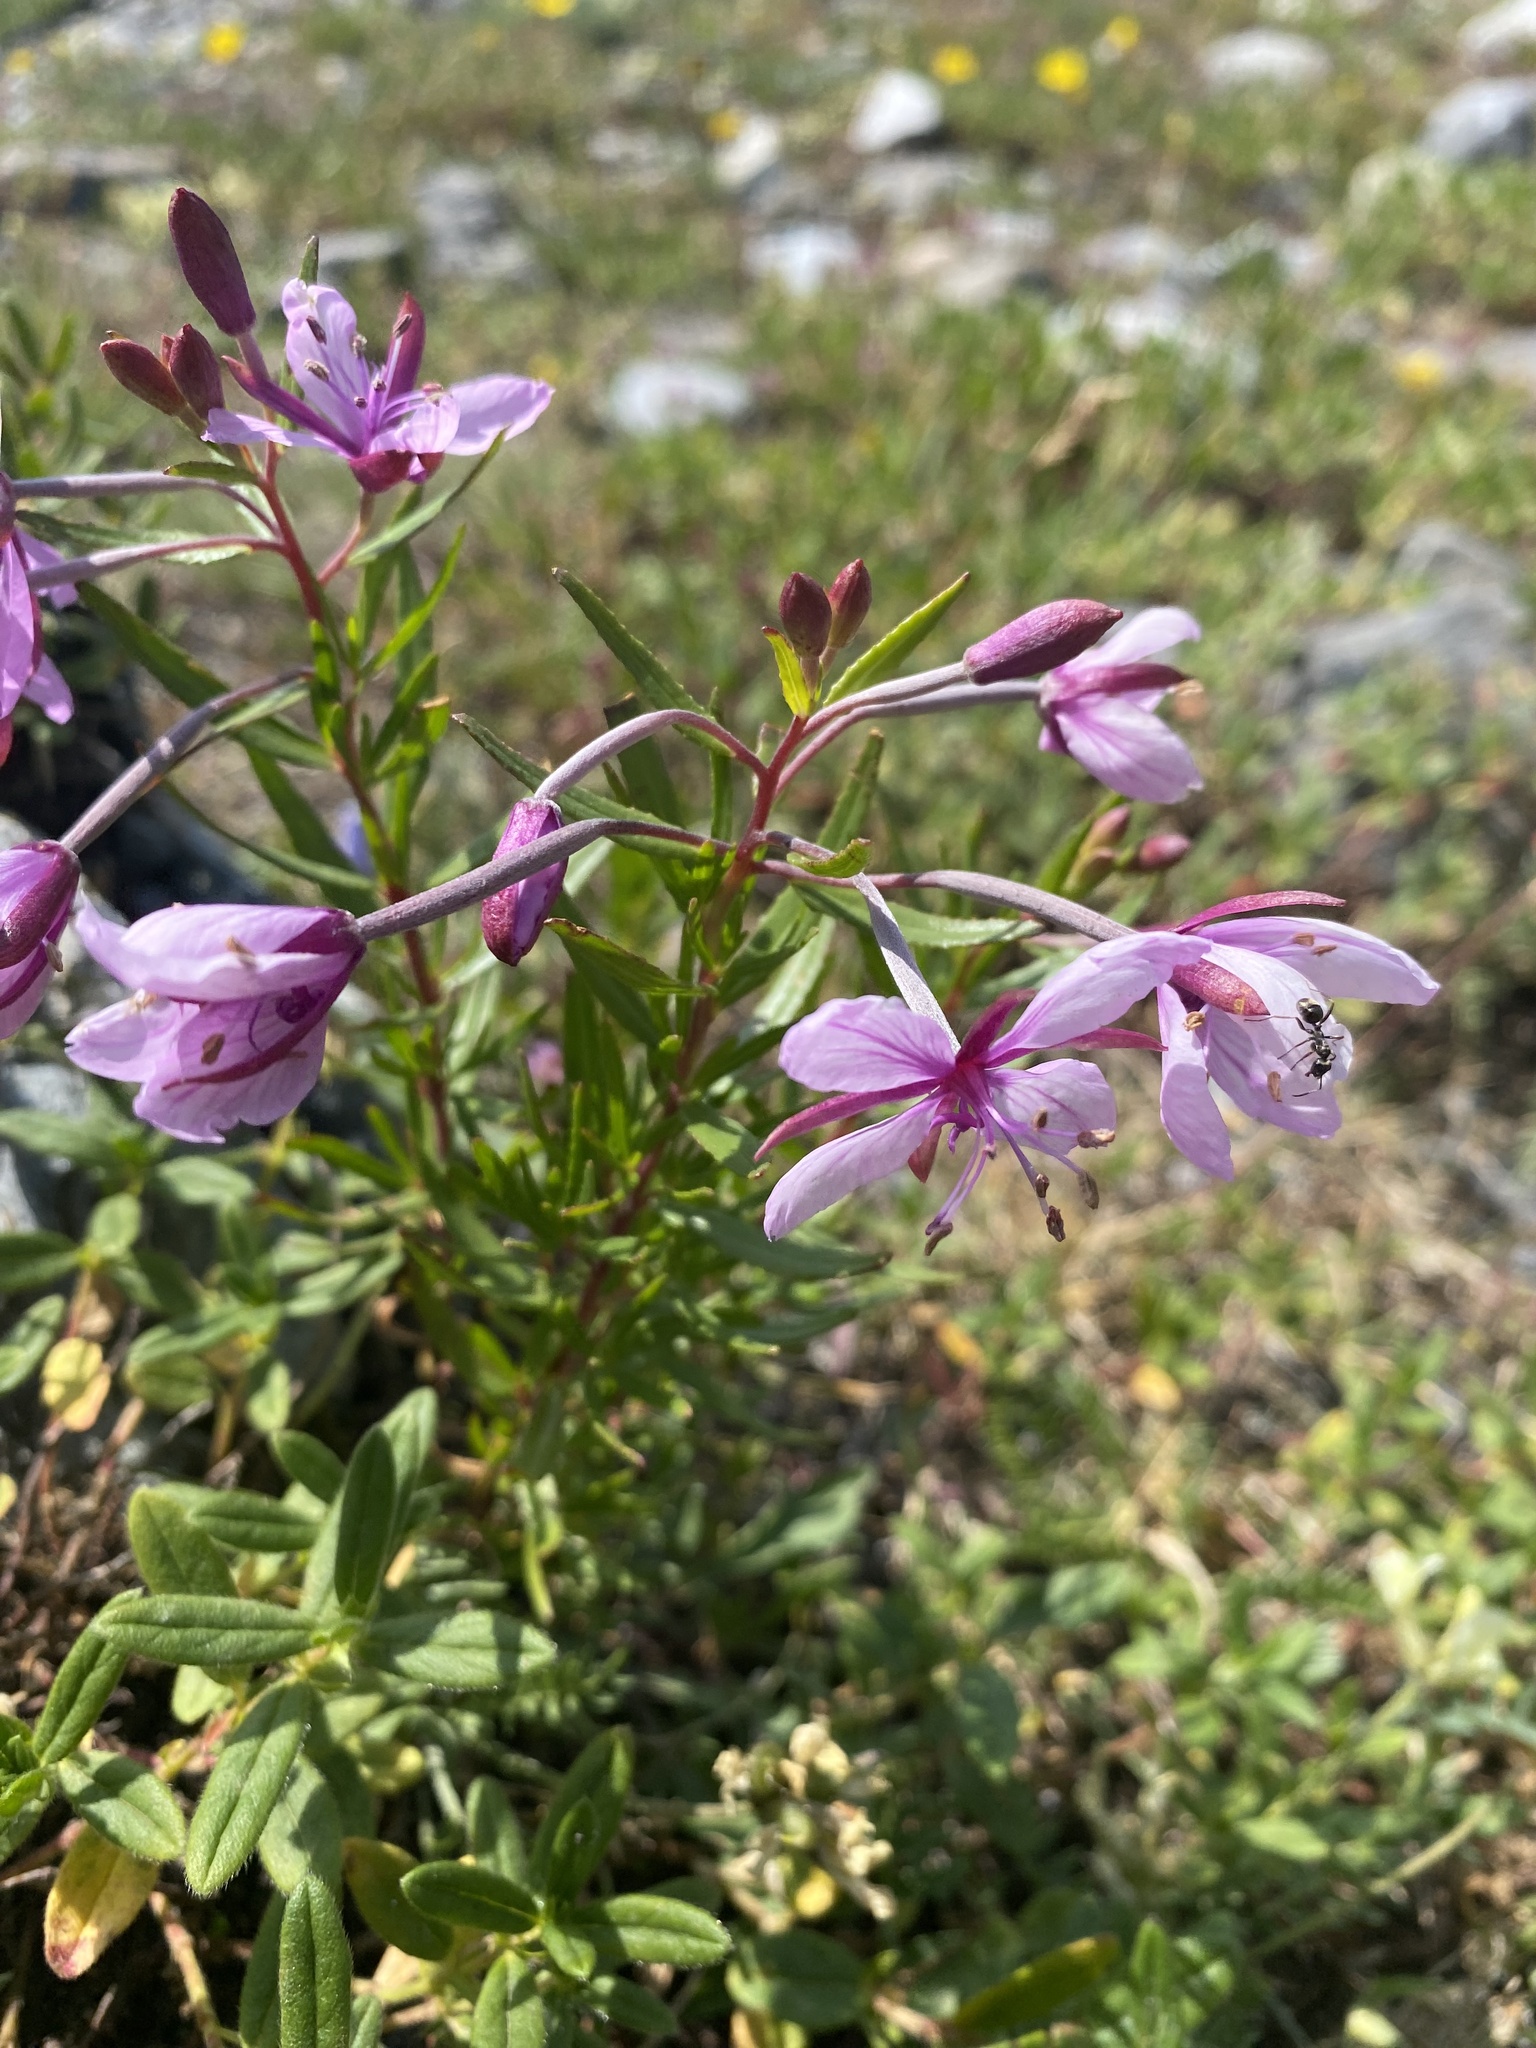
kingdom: Plantae
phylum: Tracheophyta
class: Magnoliopsida
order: Myrtales
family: Onagraceae
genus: Chamaenerion
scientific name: Chamaenerion fleischeri
